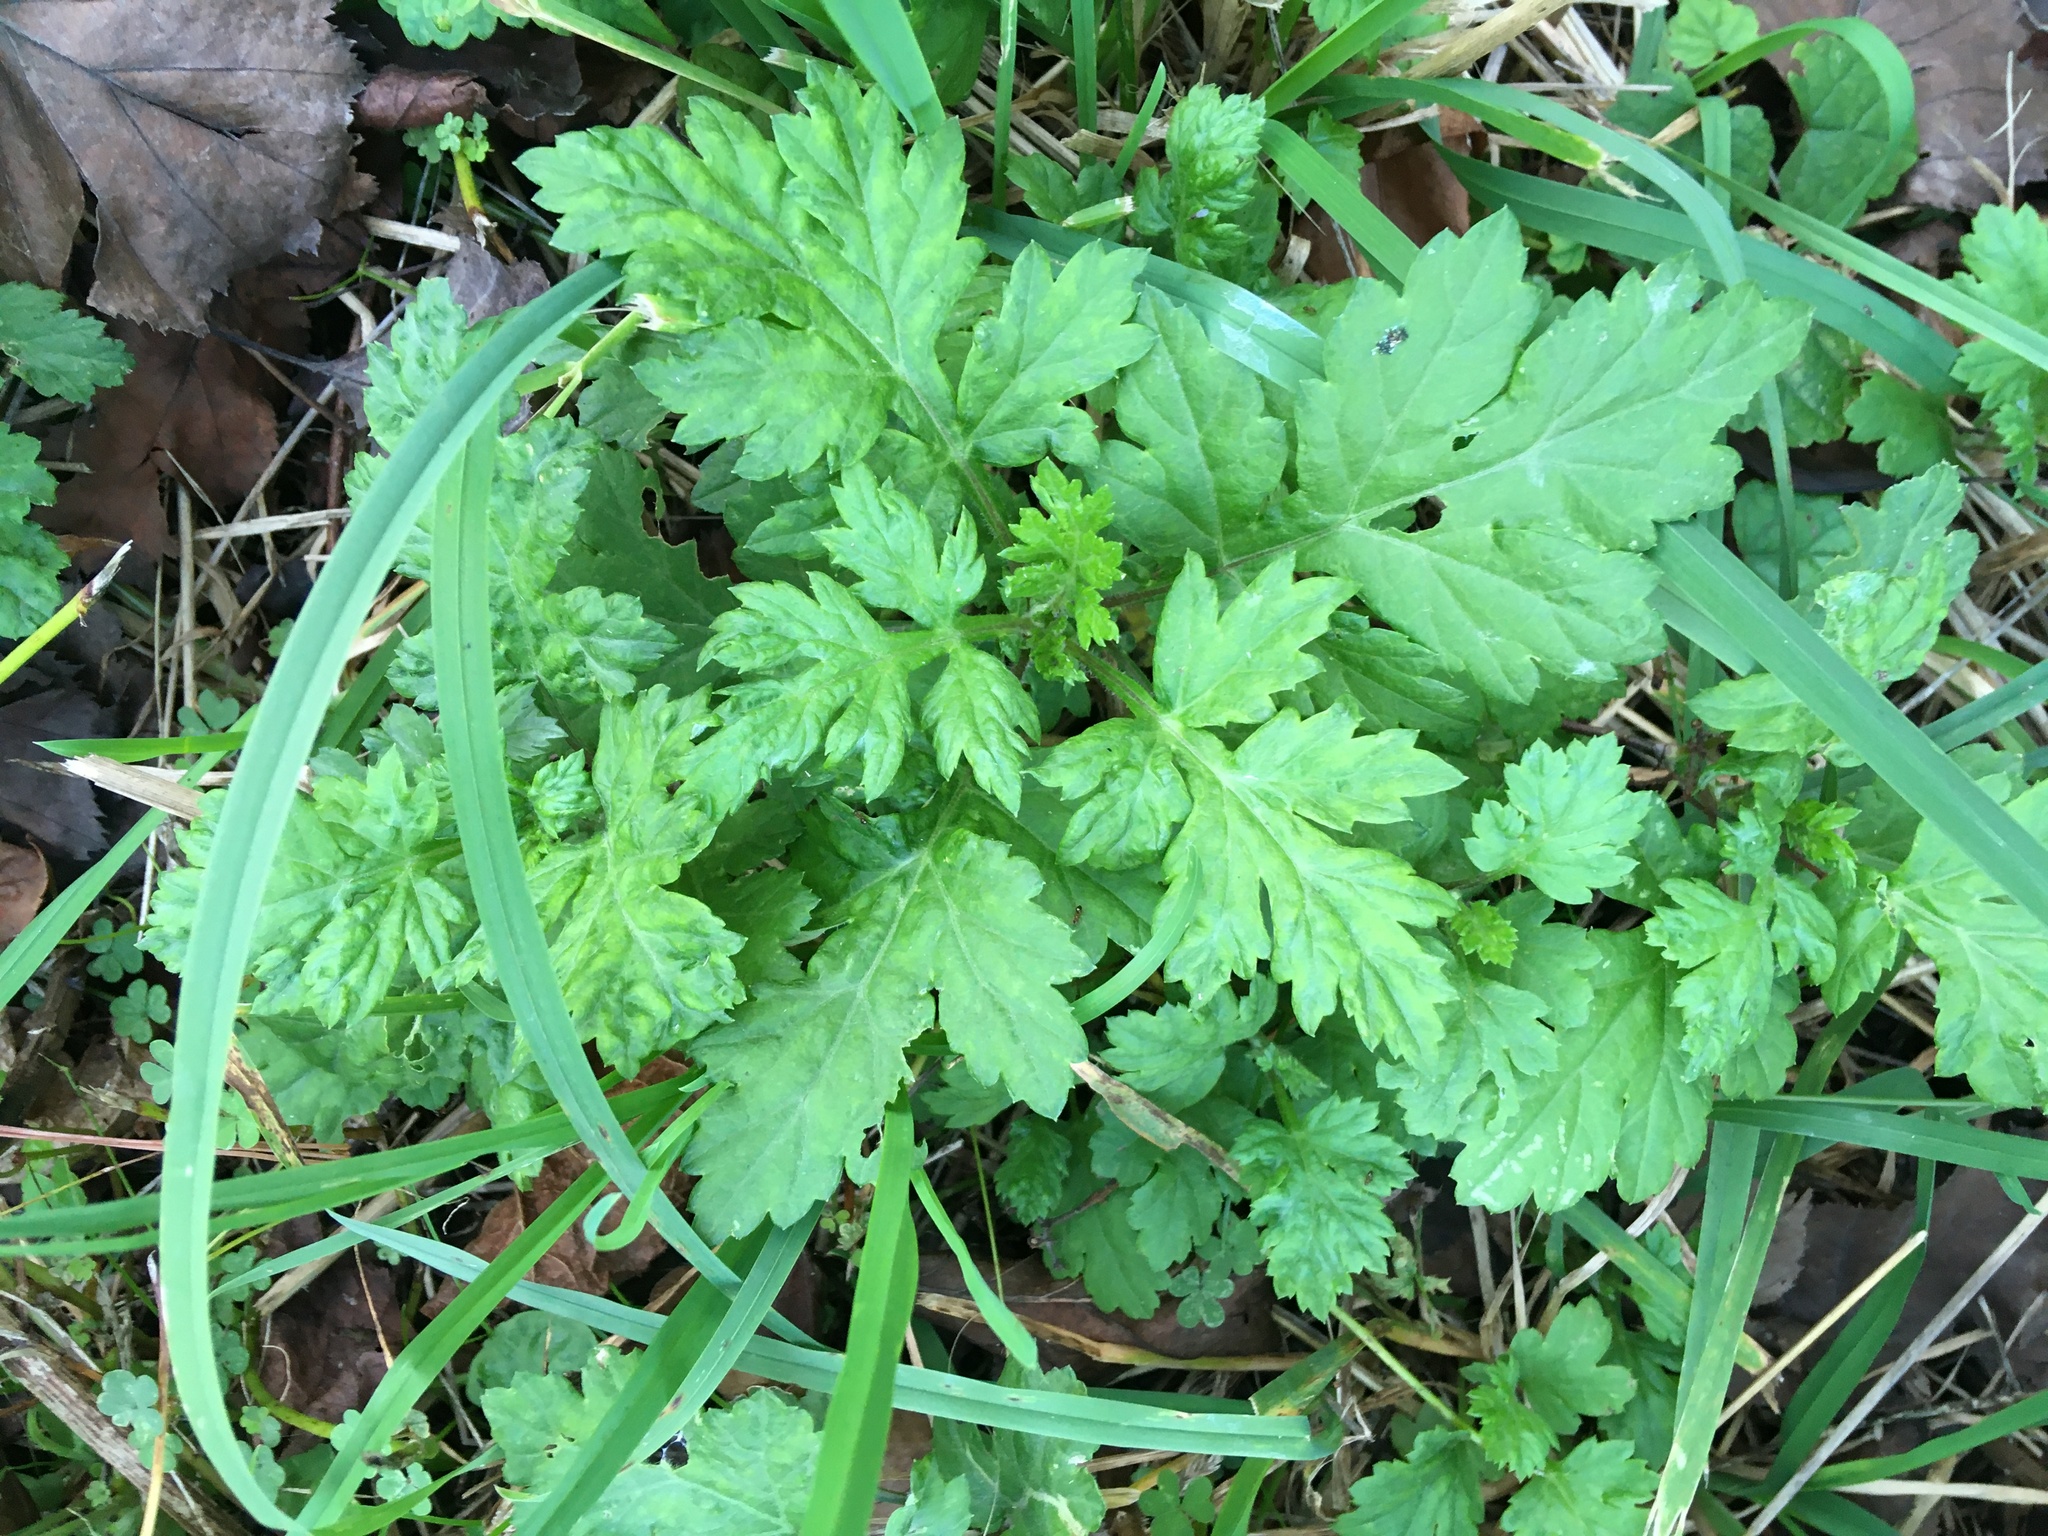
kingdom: Plantae
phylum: Tracheophyta
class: Magnoliopsida
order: Asterales
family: Asteraceae
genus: Artemisia
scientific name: Artemisia vulgaris
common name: Mugwort
